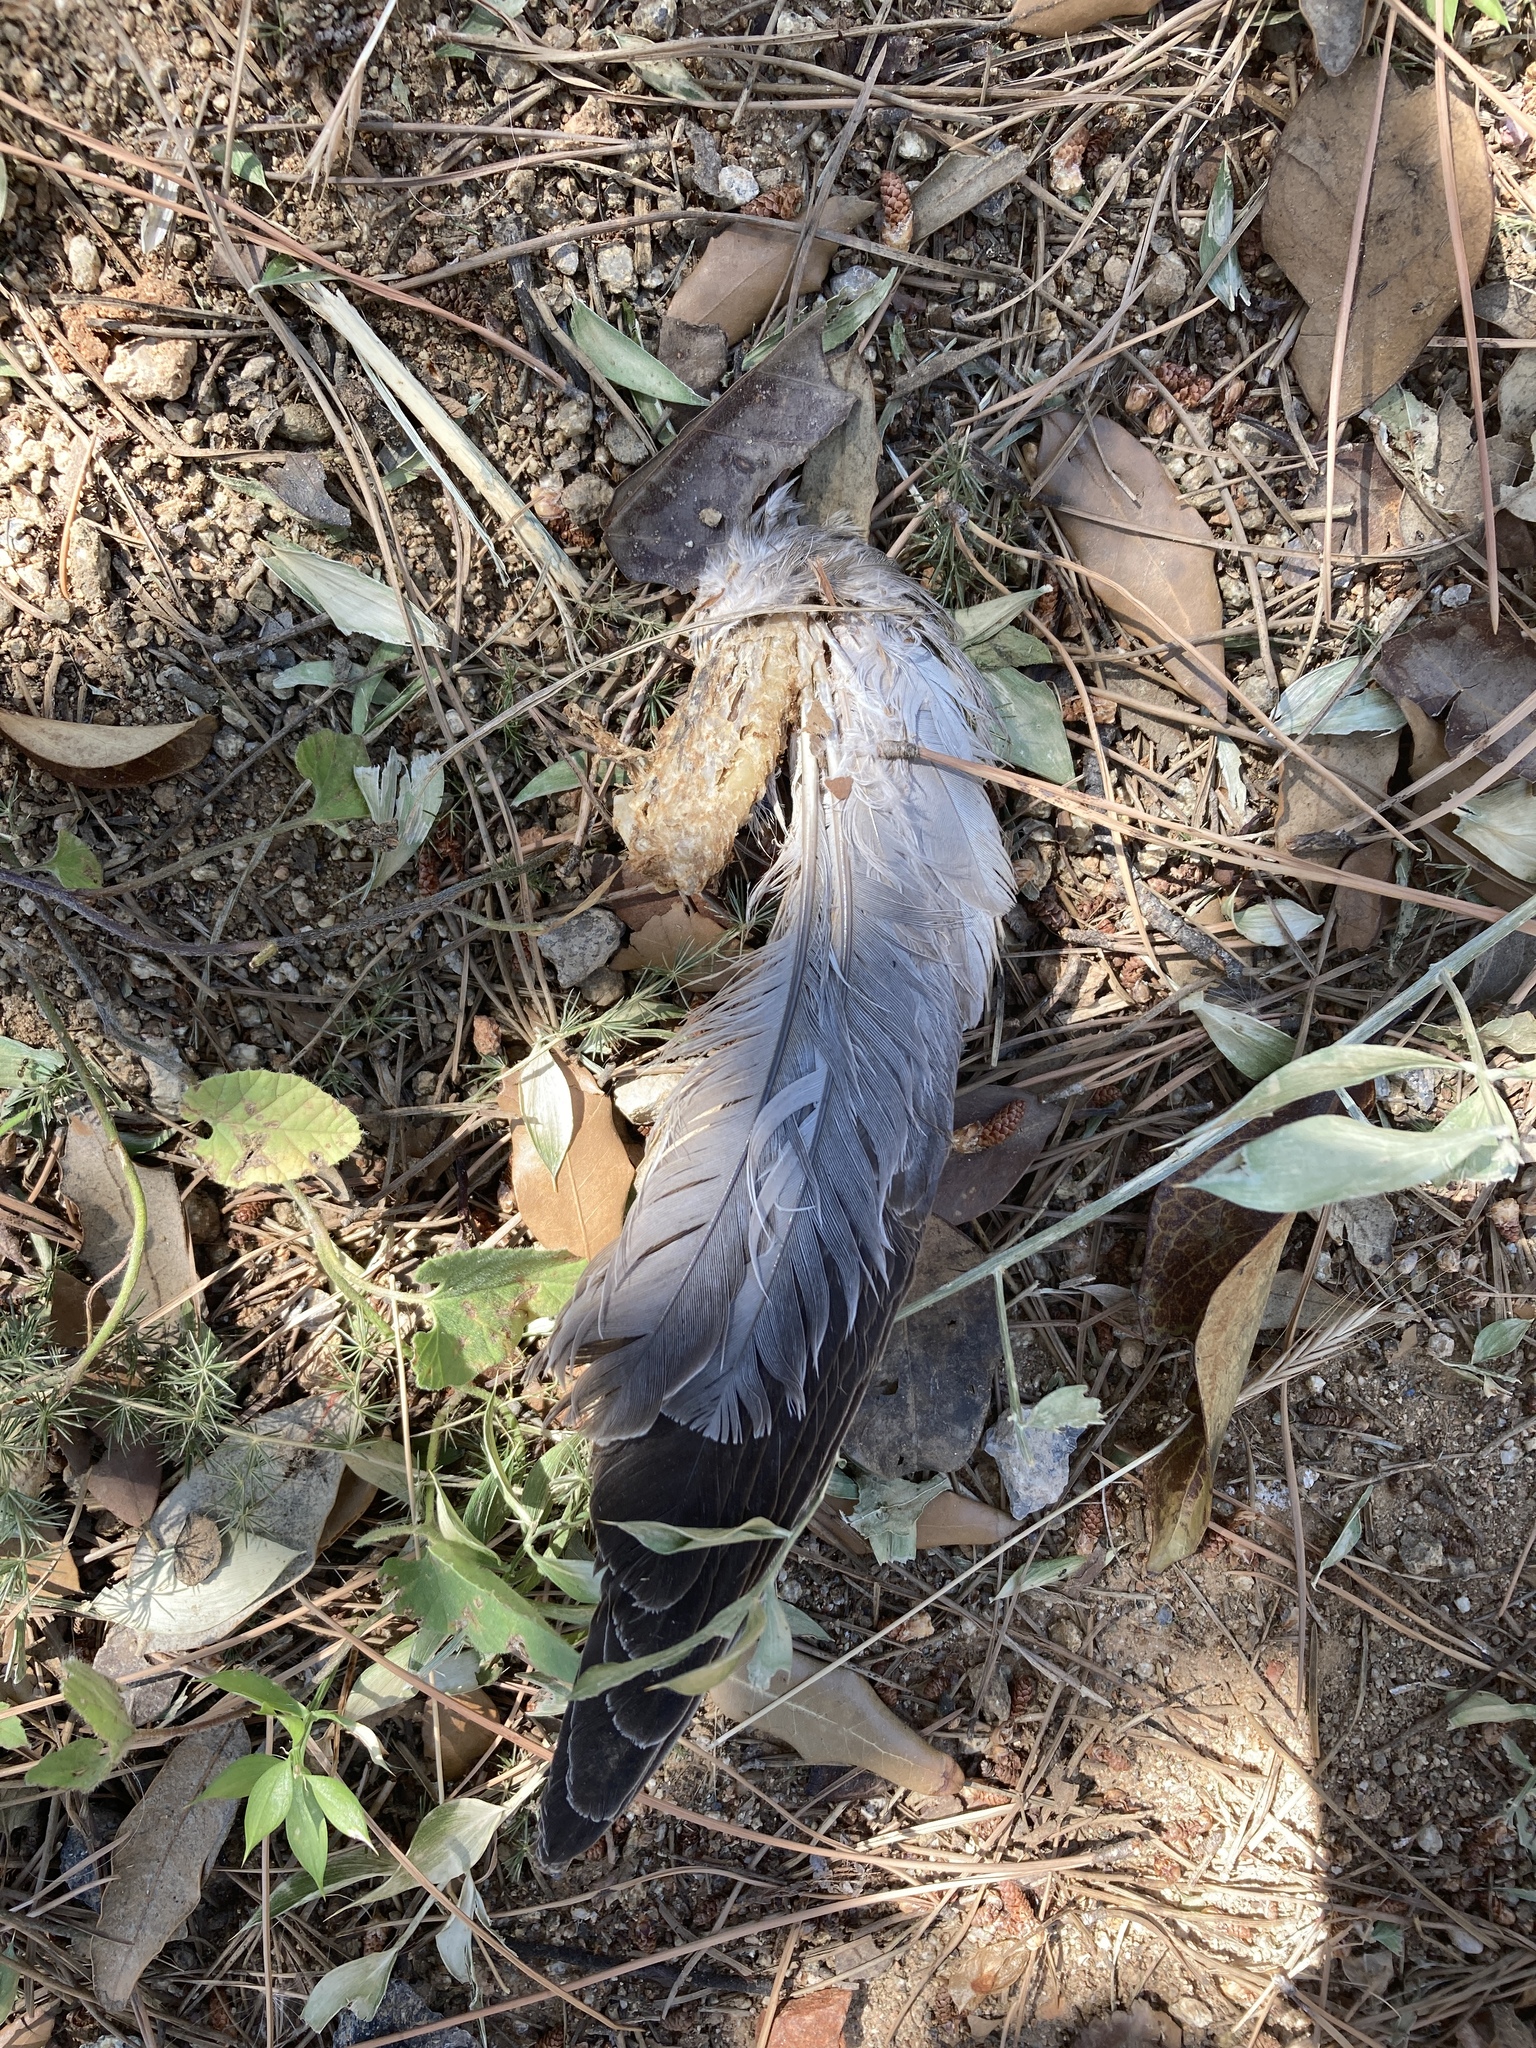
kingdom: Animalia
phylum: Chordata
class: Aves
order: Columbiformes
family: Columbidae
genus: Streptopelia
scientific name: Streptopelia decaocto
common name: Eurasian collared dove
